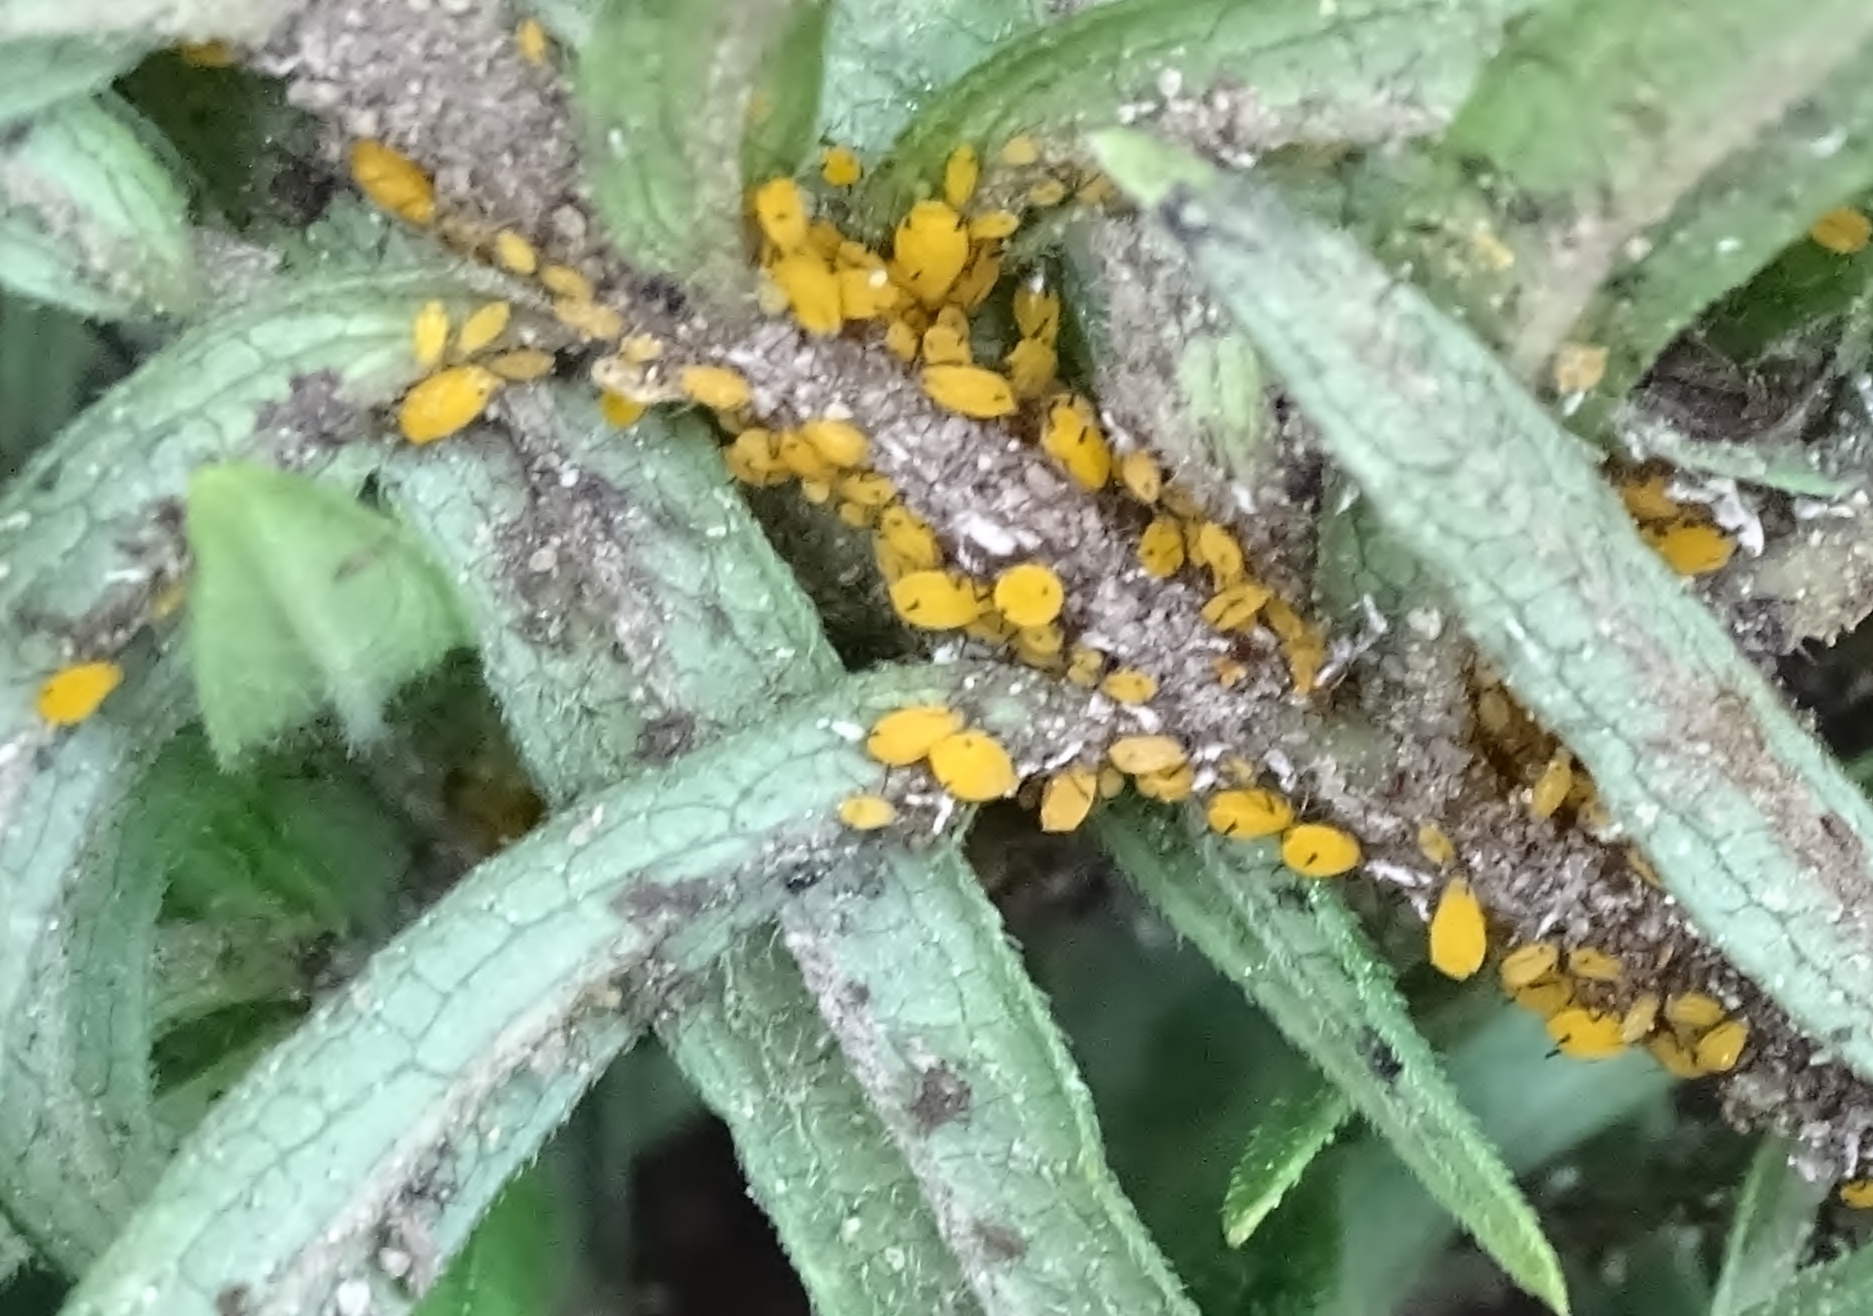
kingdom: Animalia
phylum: Arthropoda
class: Insecta
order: Hemiptera
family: Aphididae
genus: Aphis
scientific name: Aphis nerii
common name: Oleander aphid
